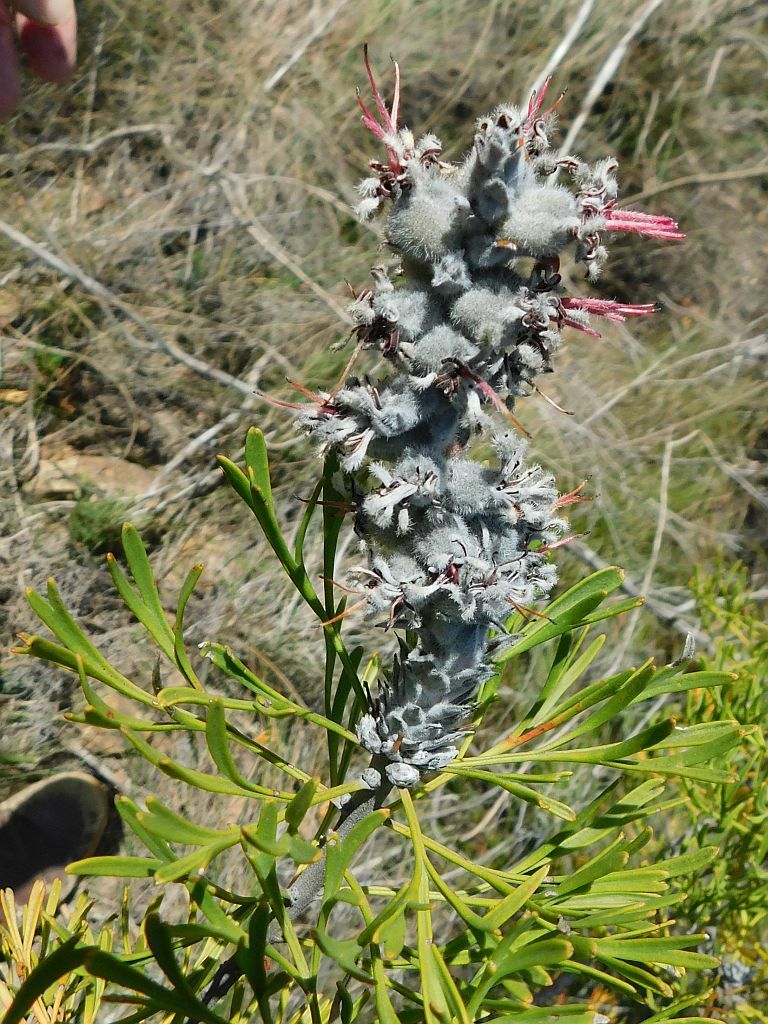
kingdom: Plantae
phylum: Tracheophyta
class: Magnoliopsida
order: Proteales
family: Proteaceae
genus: Paranomus
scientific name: Paranomus dispersus
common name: Long-head sceptre
